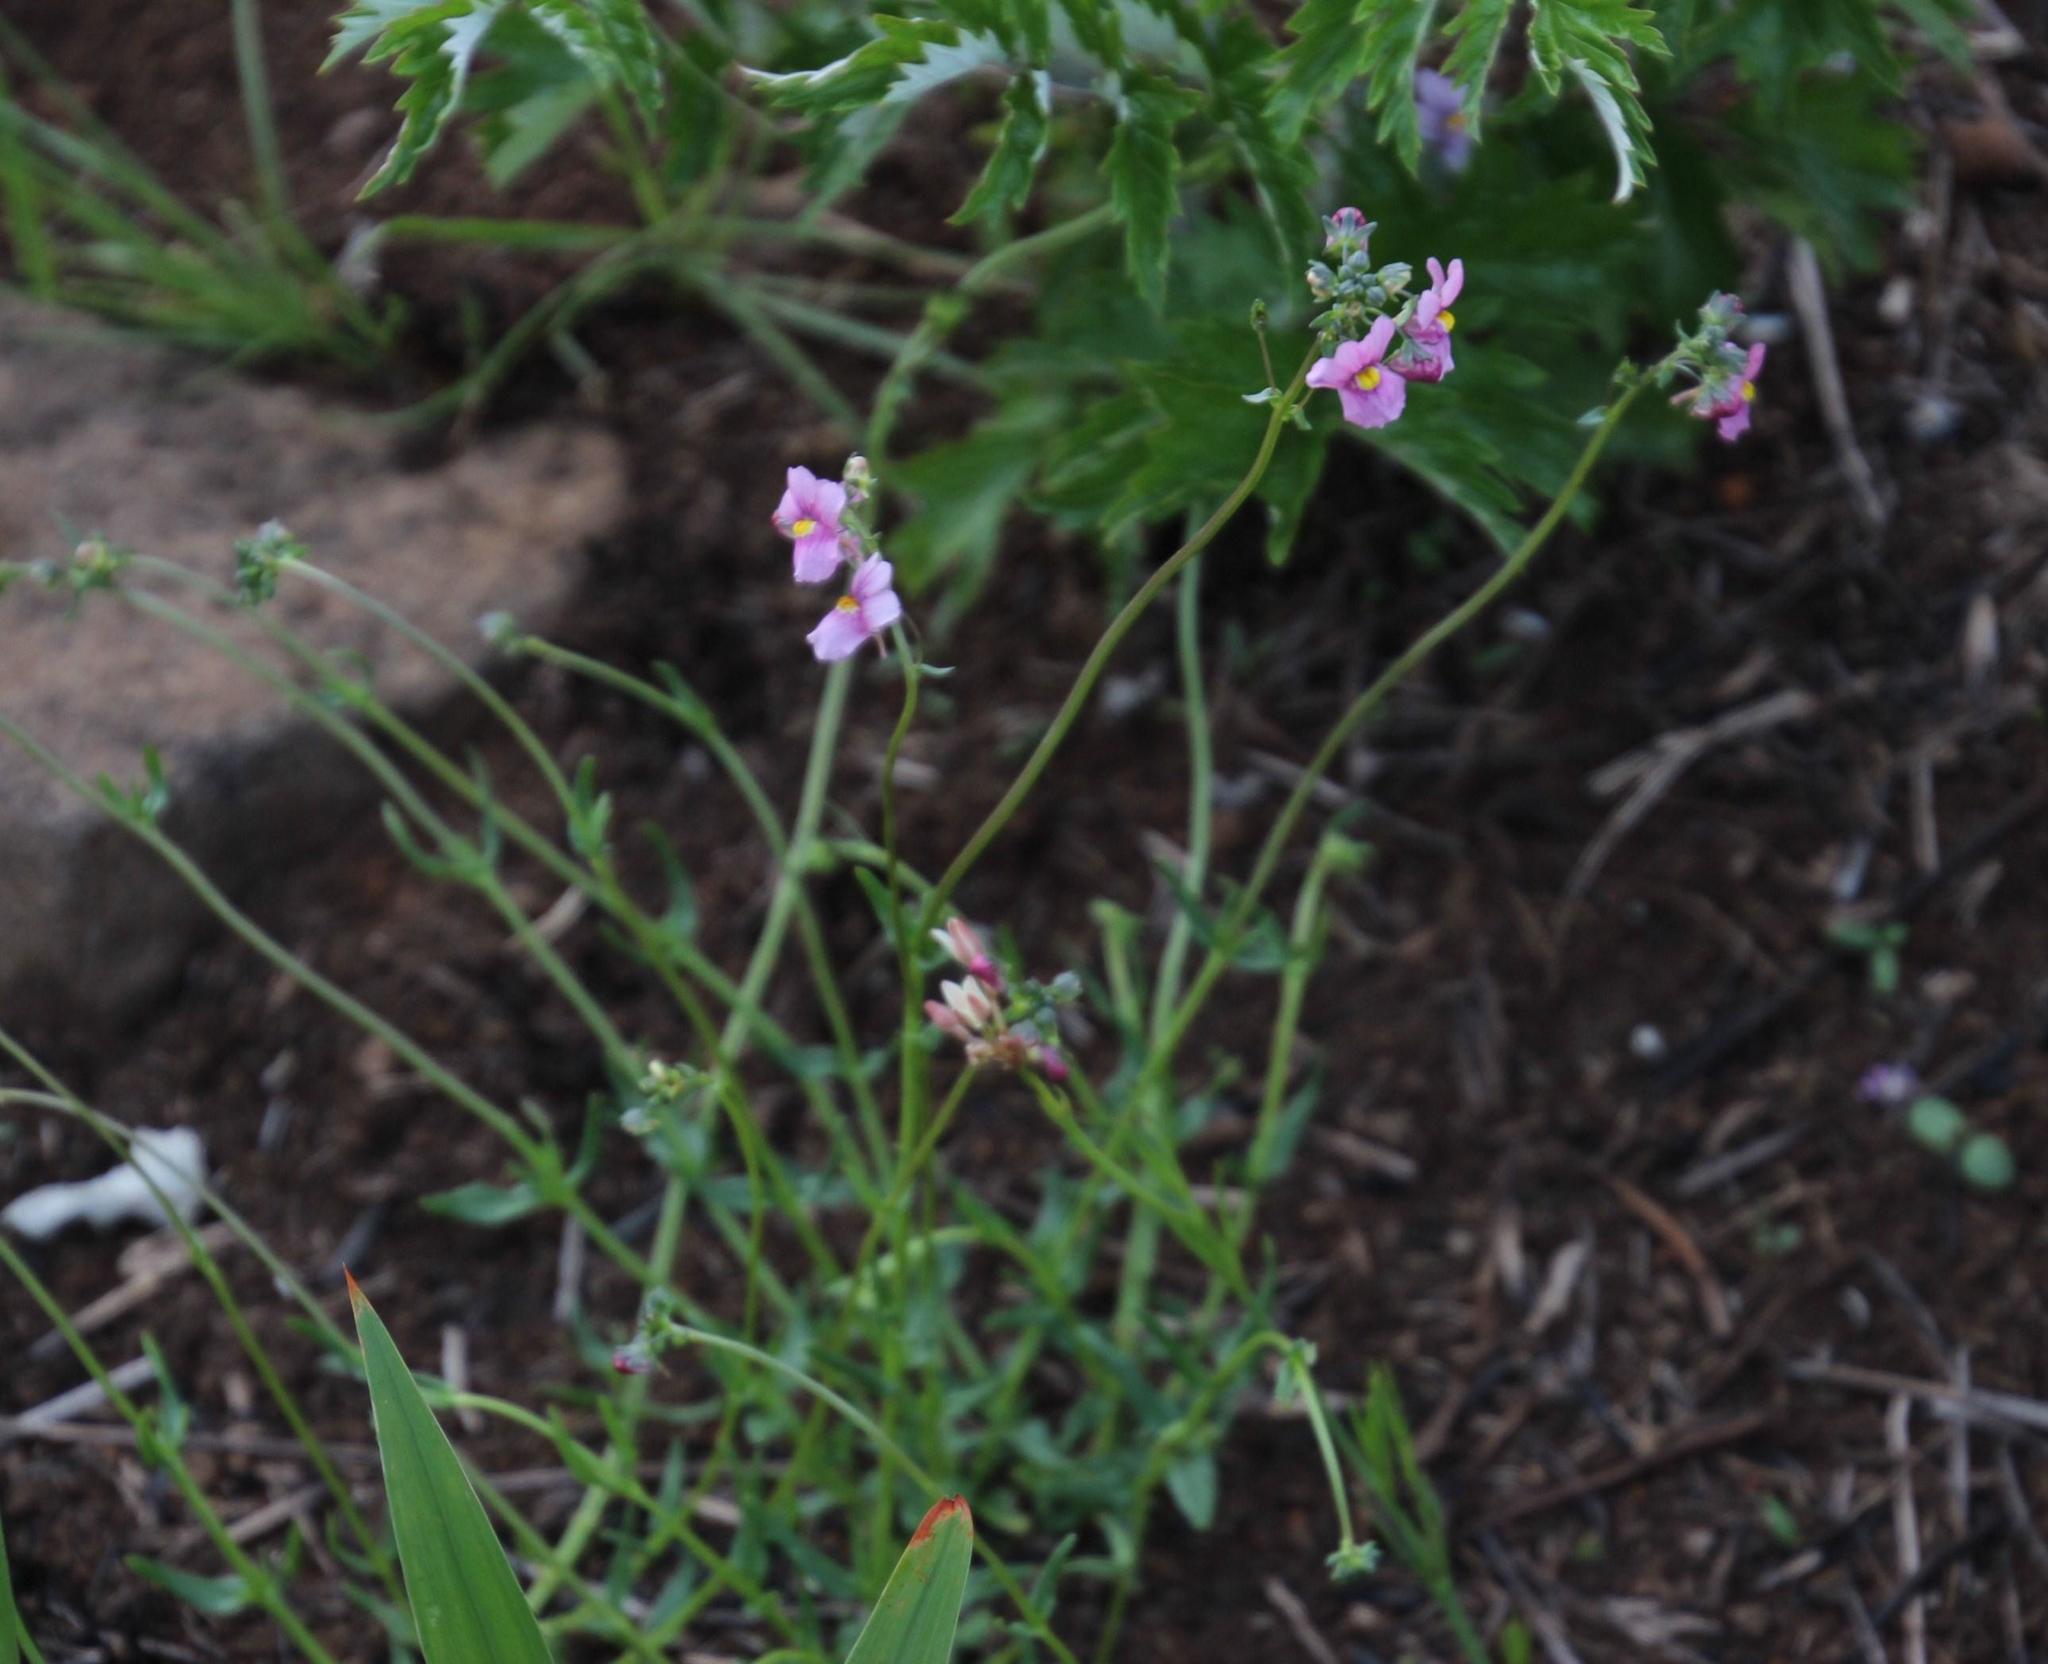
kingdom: Plantae
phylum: Tracheophyta
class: Magnoliopsida
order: Lamiales
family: Scrophulariaceae
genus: Nemesia
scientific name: Nemesia fruticans
